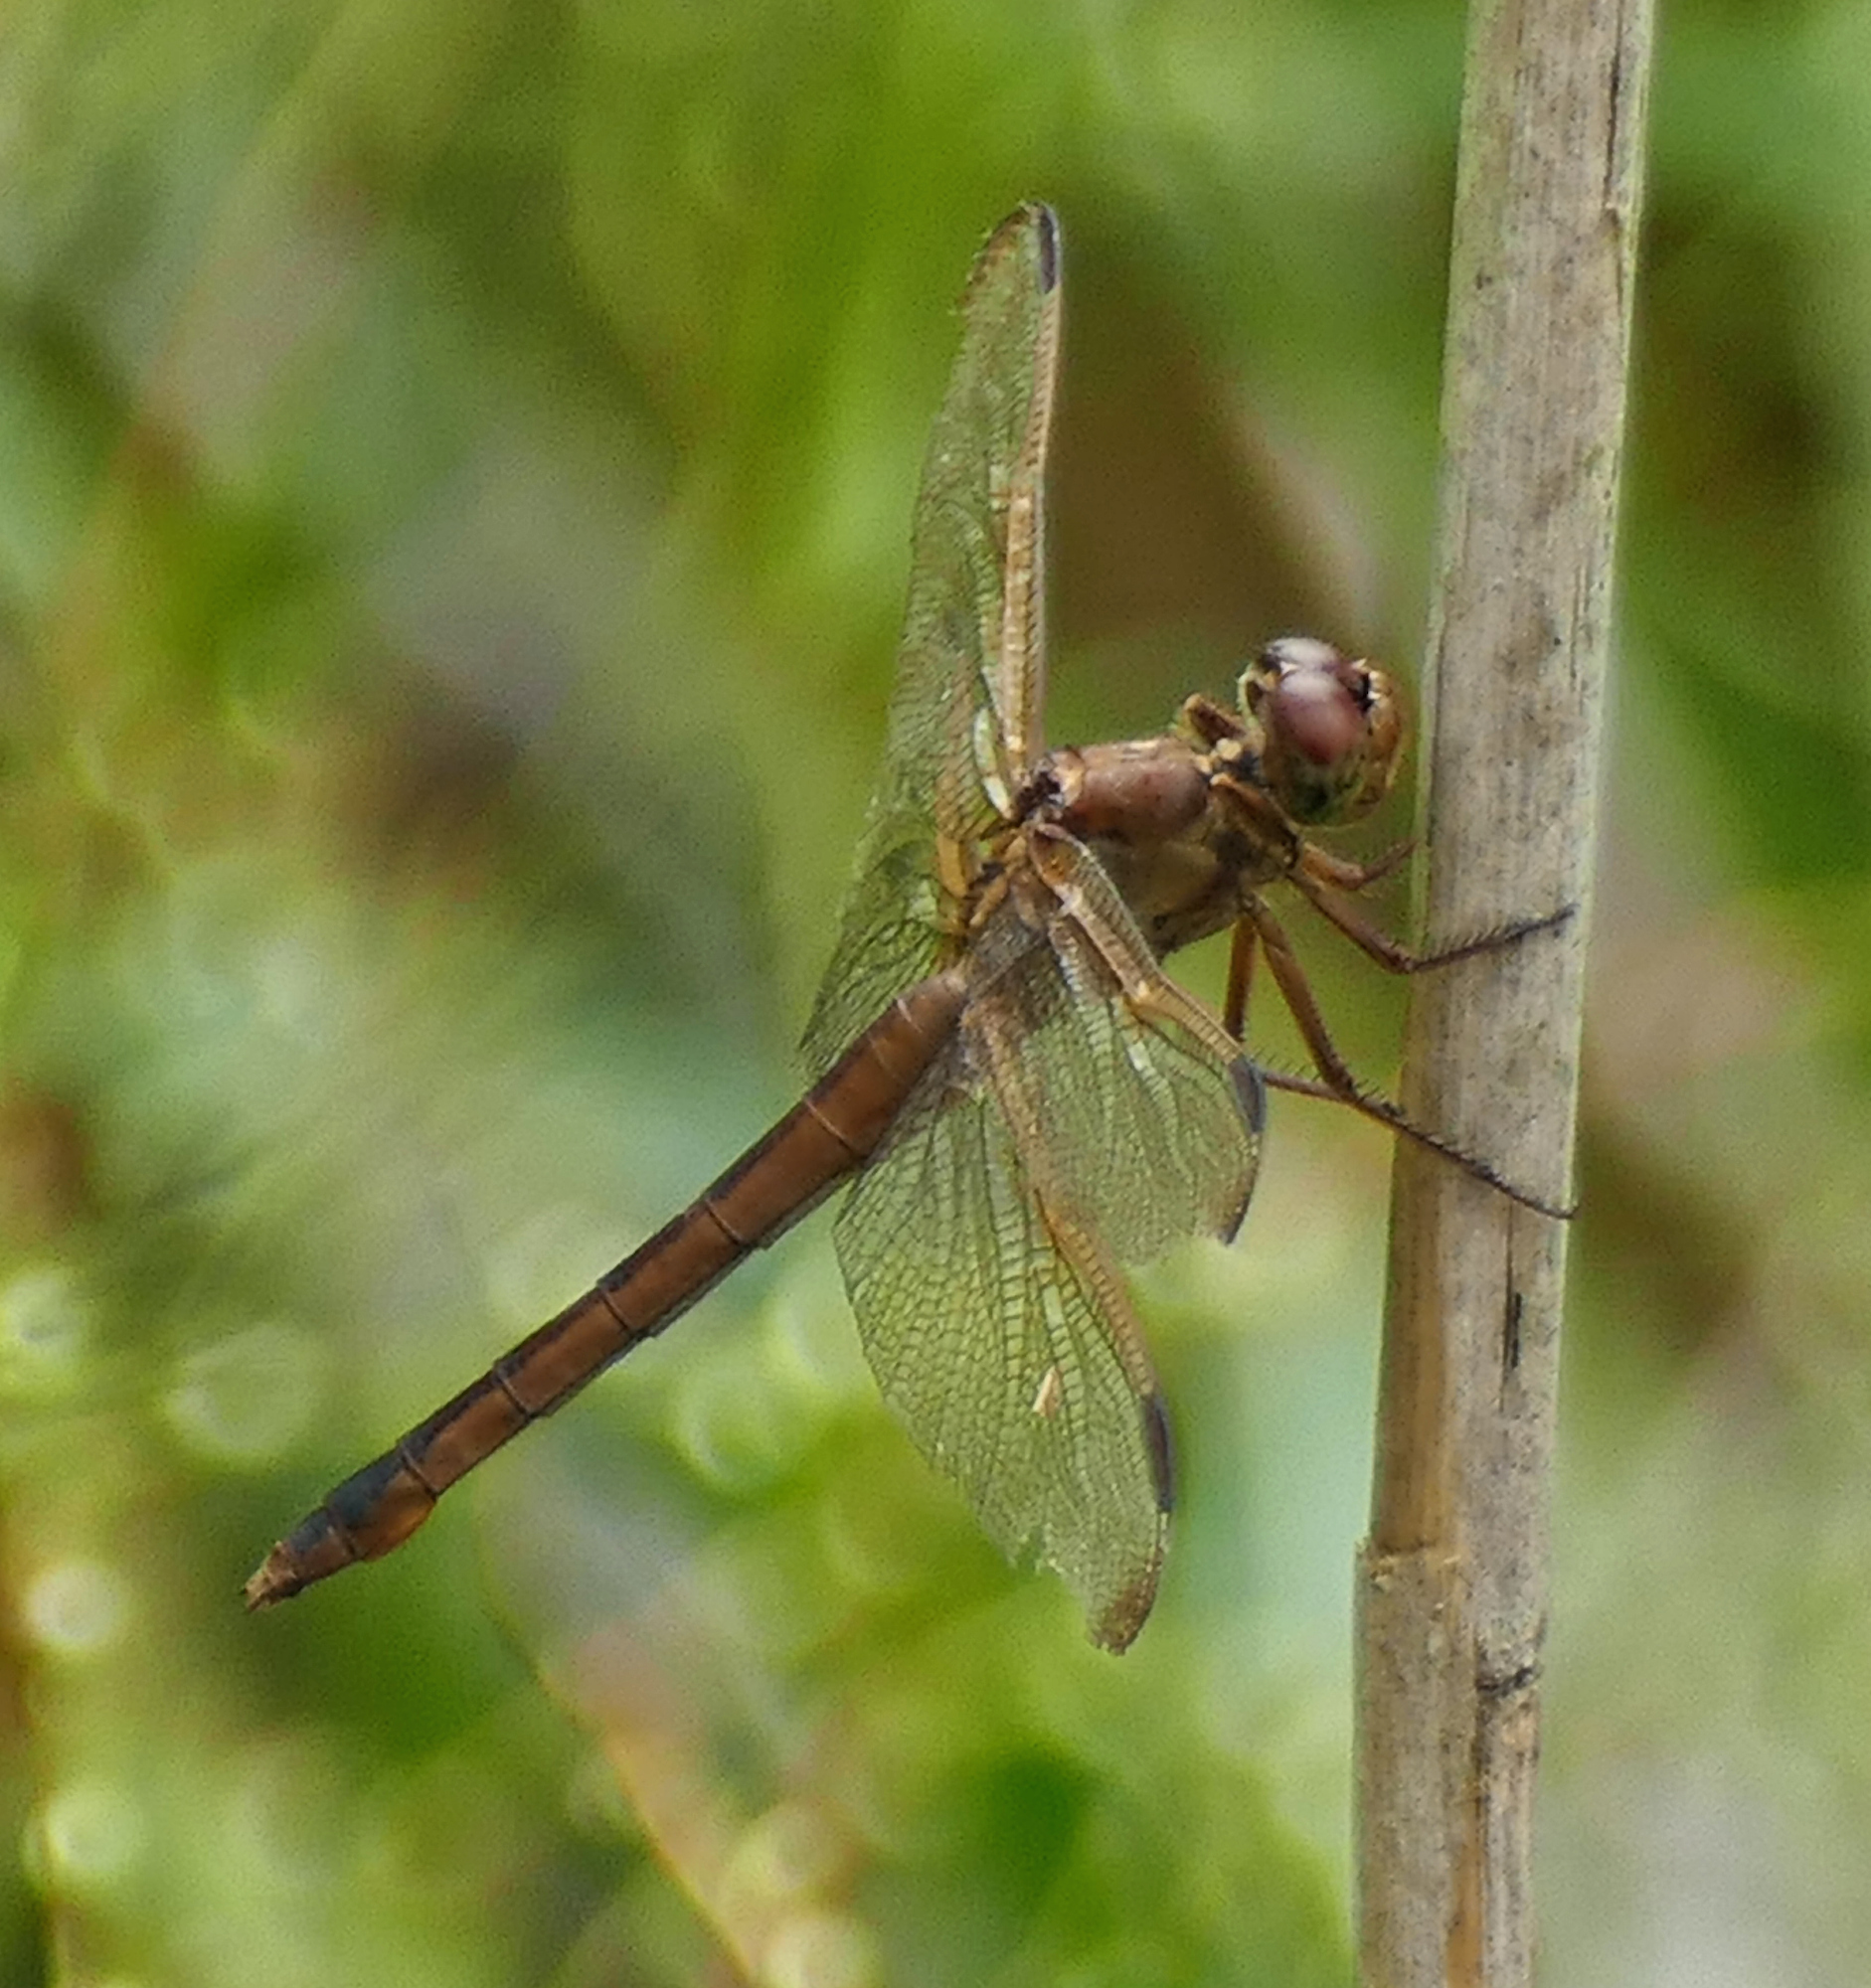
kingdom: Animalia
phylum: Arthropoda
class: Insecta
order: Odonata
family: Libellulidae
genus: Libellula
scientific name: Libellula needhami
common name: Needham's skimmer
